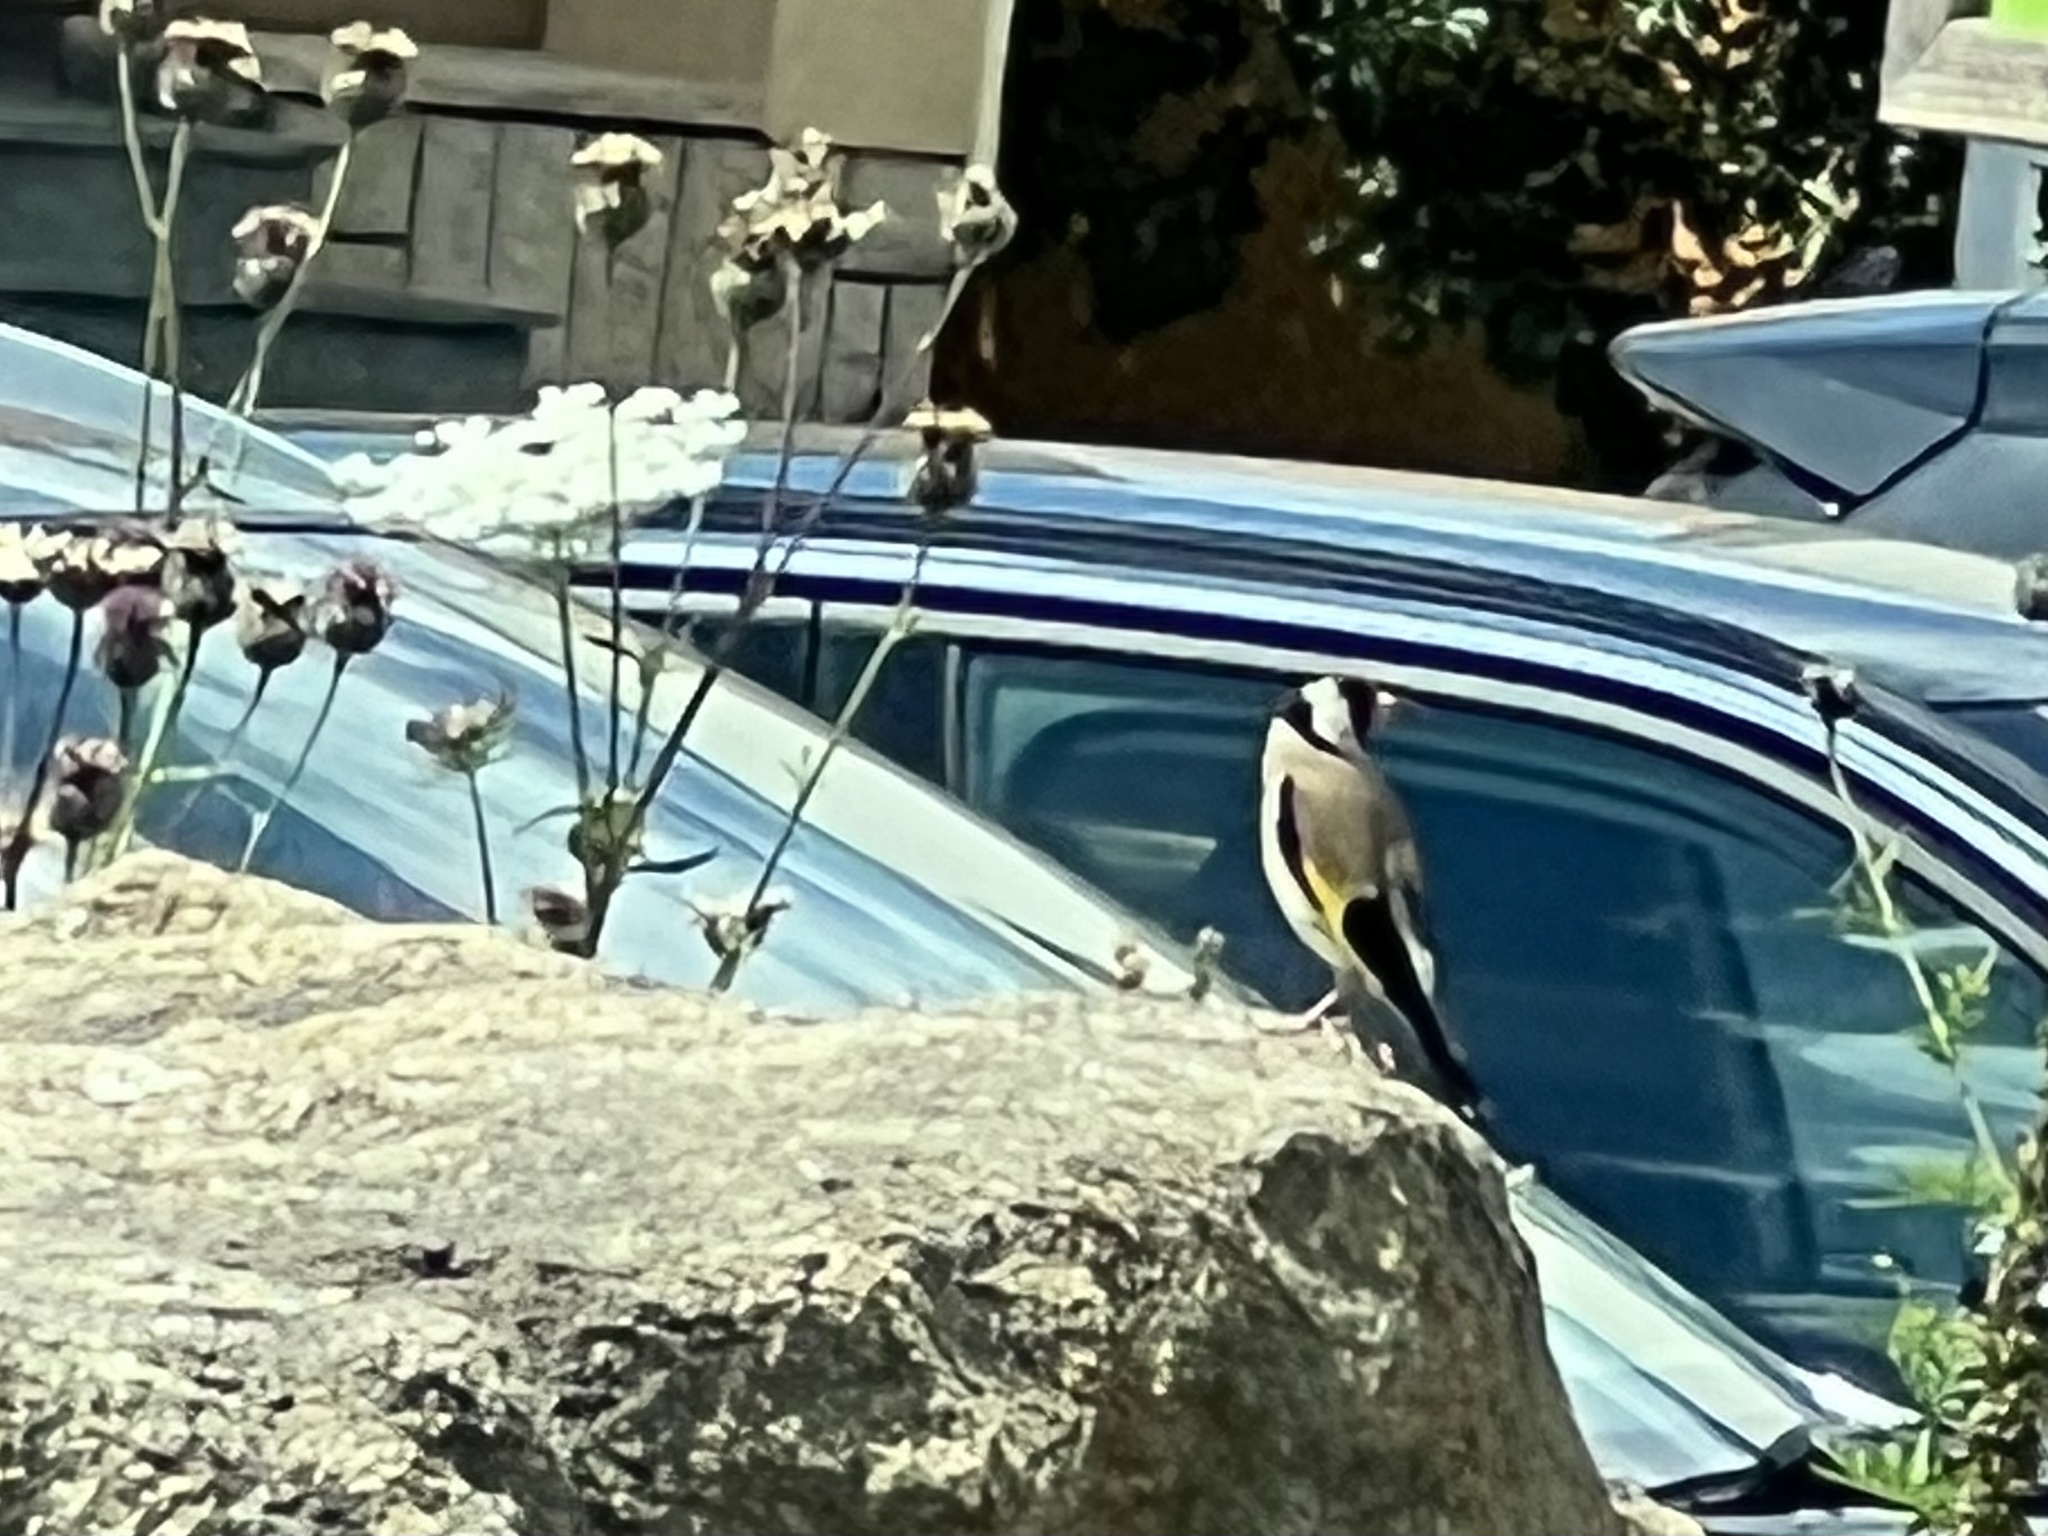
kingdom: Animalia
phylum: Chordata
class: Aves
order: Passeriformes
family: Fringillidae
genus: Carduelis
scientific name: Carduelis carduelis
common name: European goldfinch
